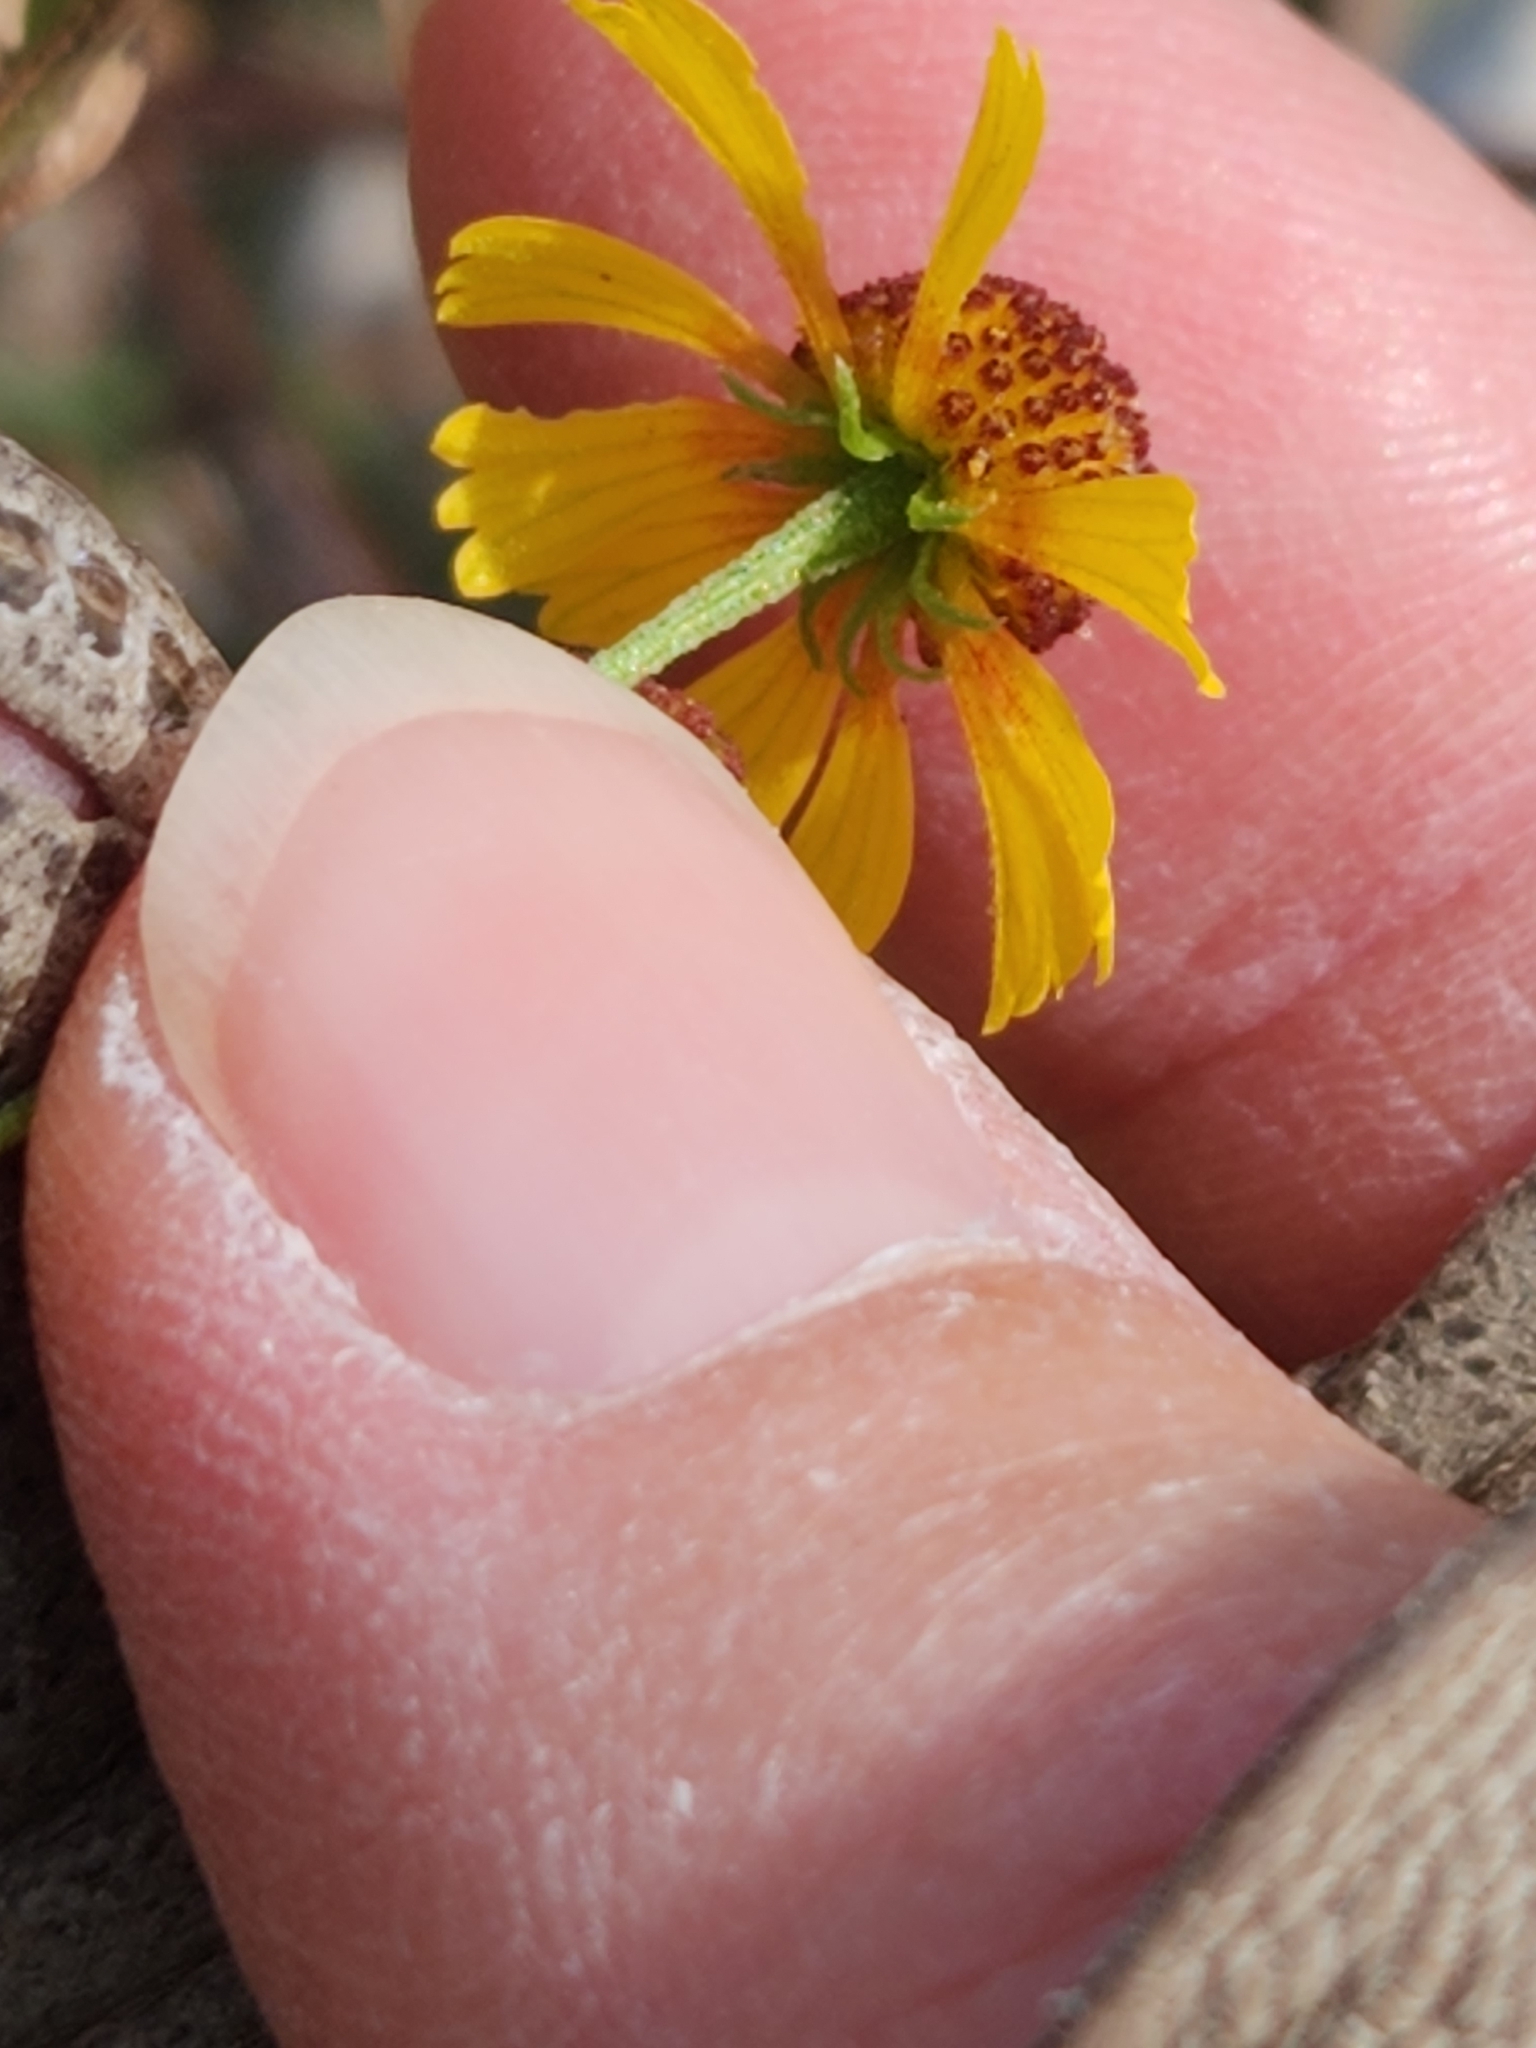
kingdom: Plantae
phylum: Tracheophyta
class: Magnoliopsida
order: Asterales
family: Asteraceae
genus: Helenium
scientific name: Helenium elegans
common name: Pretty sneezeweed
